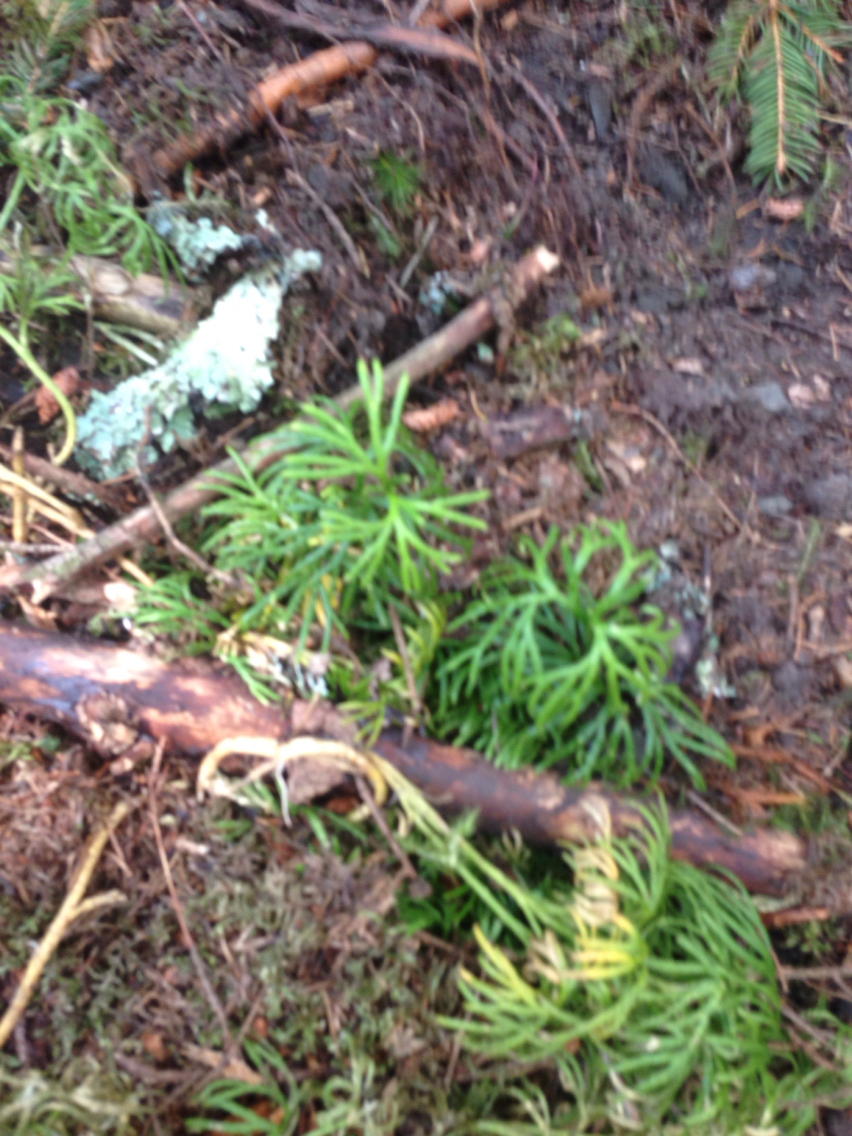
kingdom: Plantae
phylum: Tracheophyta
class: Lycopodiopsida
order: Lycopodiales
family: Lycopodiaceae
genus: Diphasiastrum
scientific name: Diphasiastrum digitatum
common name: Southern running-pine
